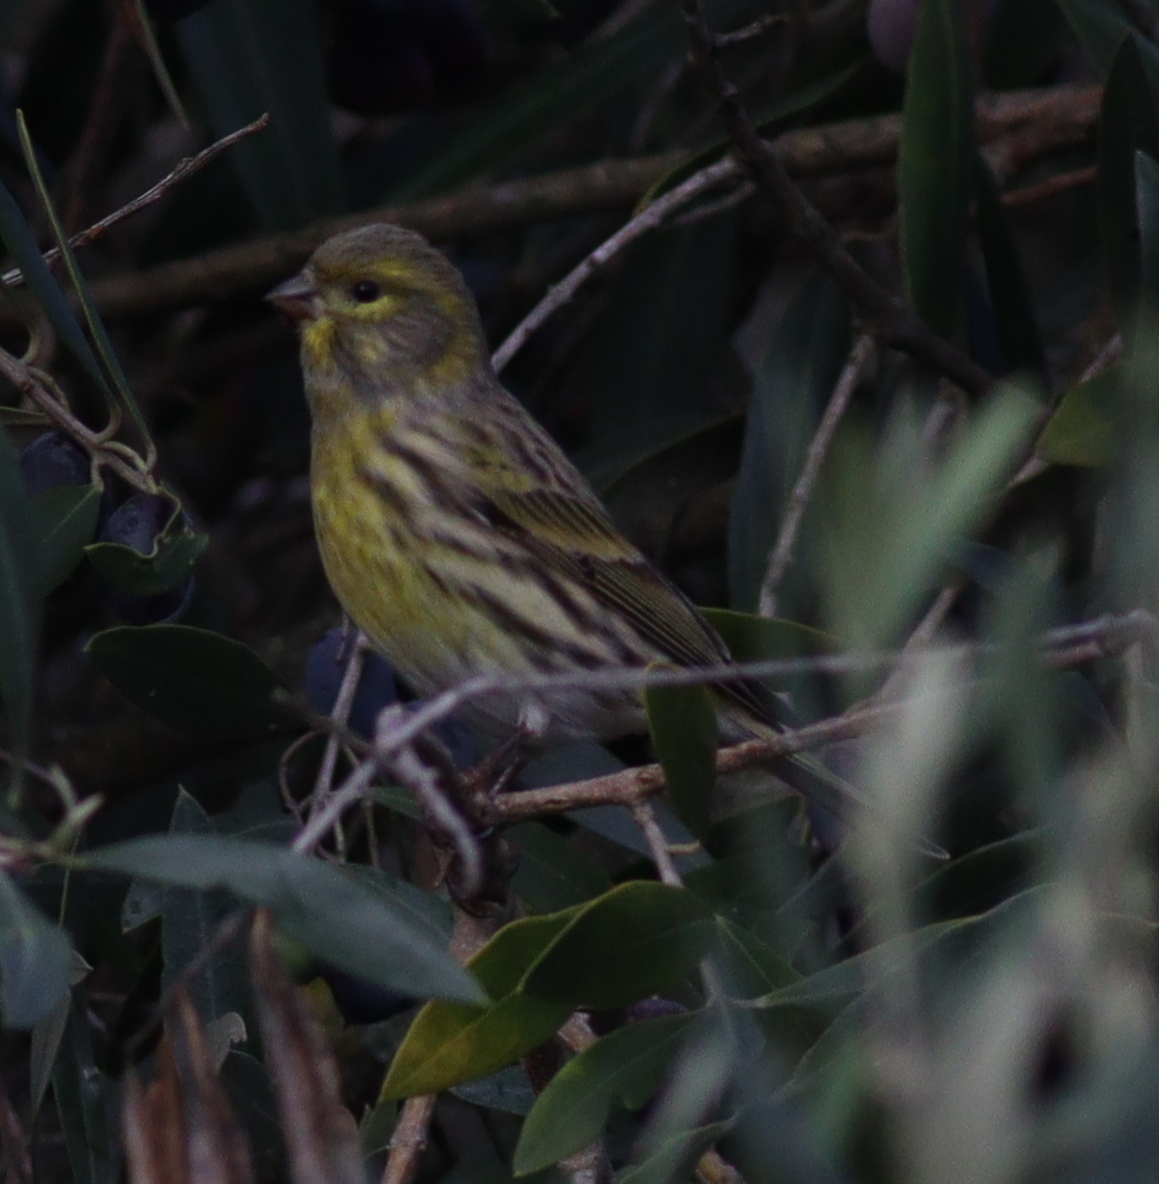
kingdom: Animalia
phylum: Chordata
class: Aves
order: Passeriformes
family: Fringillidae
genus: Serinus
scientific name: Serinus serinus
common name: European serin
